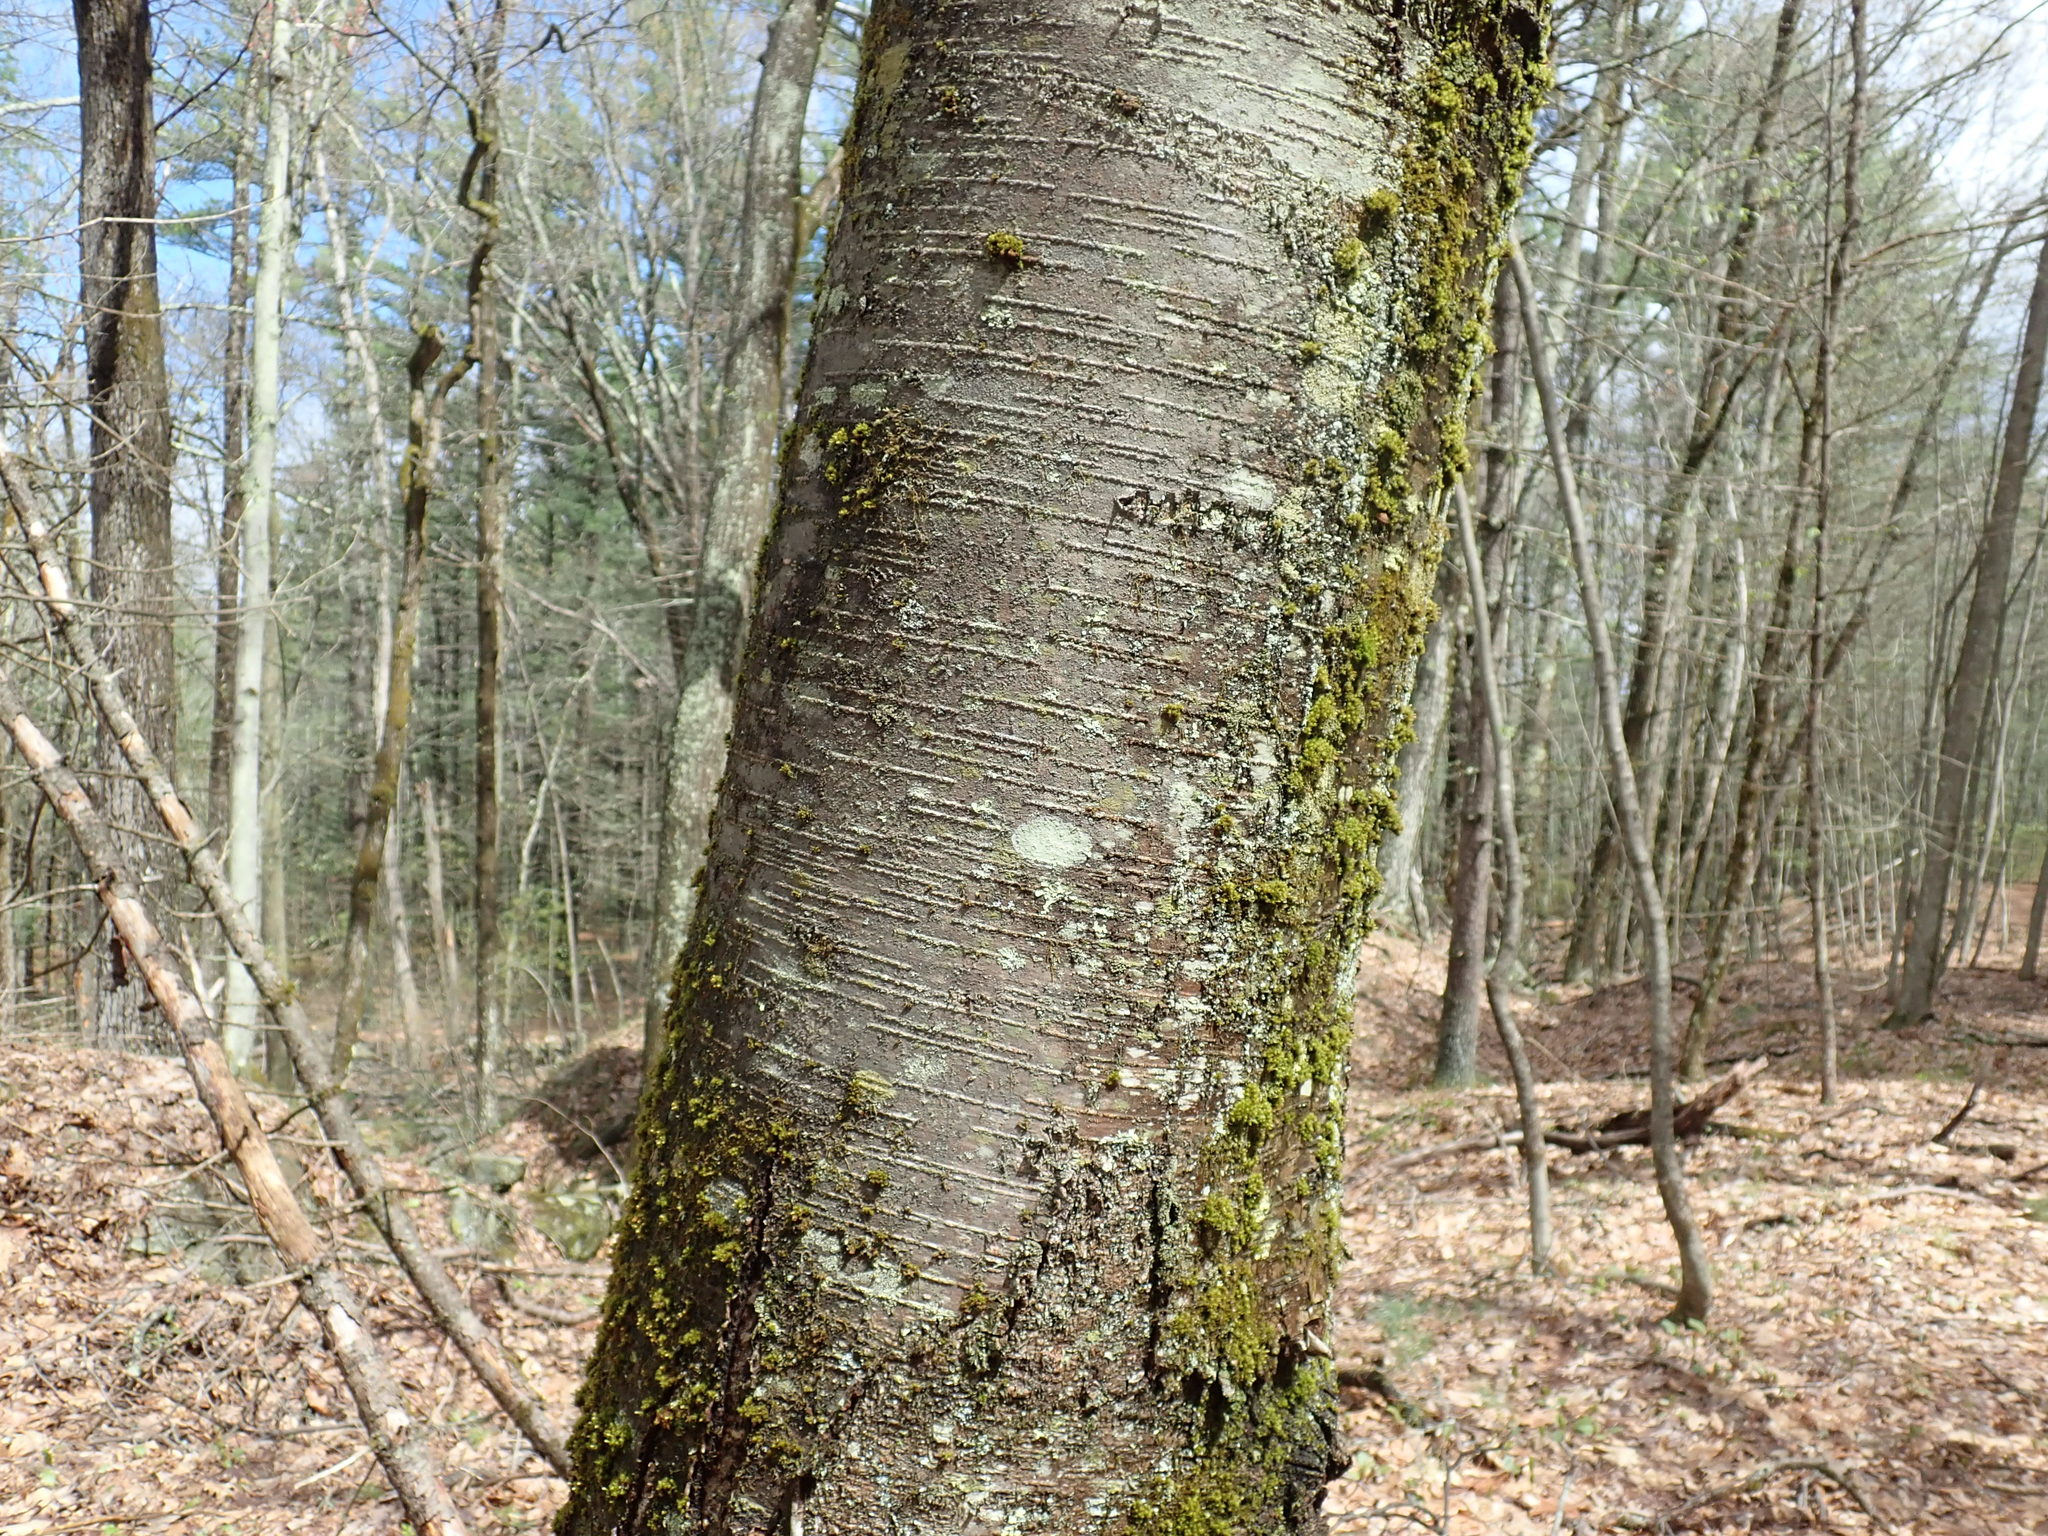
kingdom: Plantae
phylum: Tracheophyta
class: Magnoliopsida
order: Fagales
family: Betulaceae
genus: Betula
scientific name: Betula lenta
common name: Black birch
